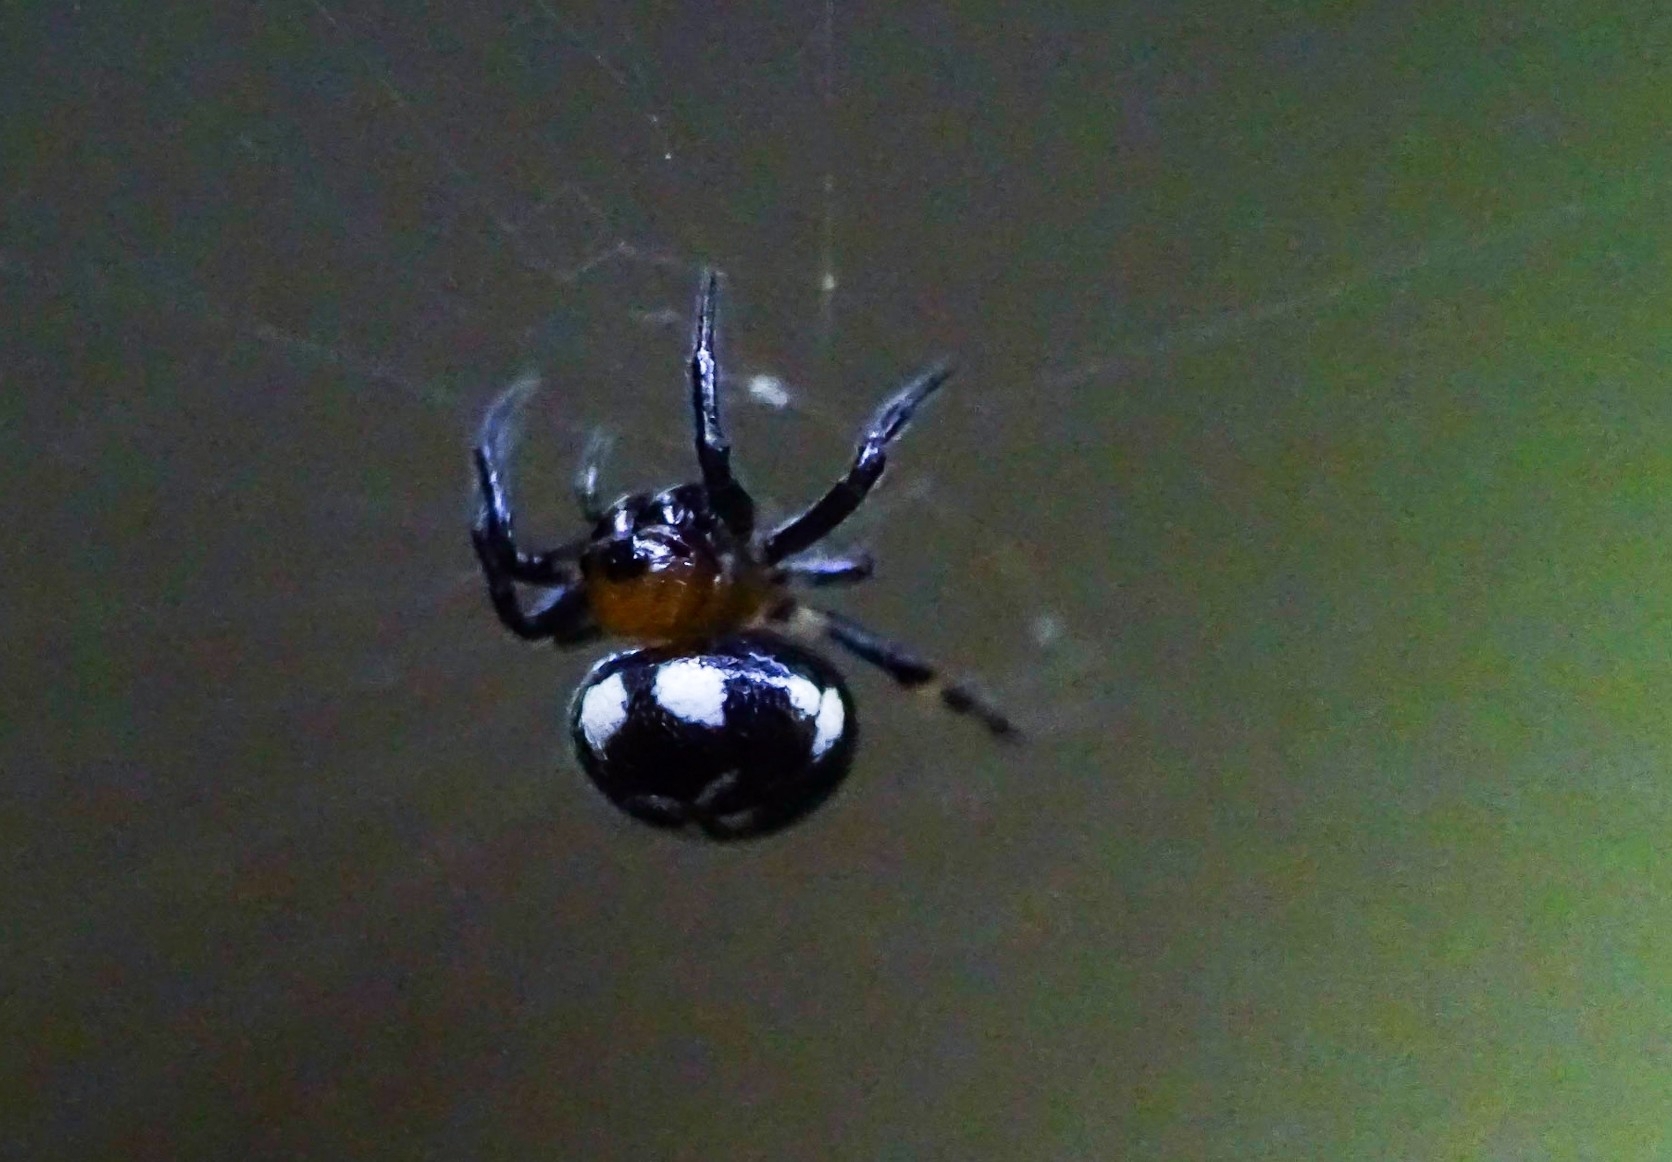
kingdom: Animalia
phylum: Arthropoda
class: Arachnida
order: Araneae
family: Araneidae
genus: Anepsion
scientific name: Anepsion maritatum
